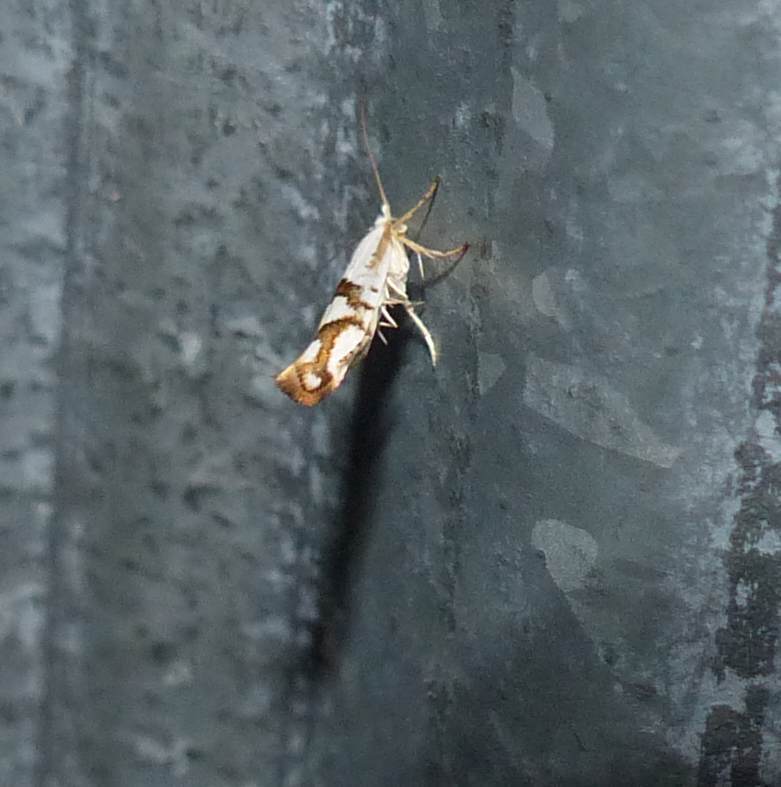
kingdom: Animalia
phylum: Arthropoda
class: Insecta
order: Lepidoptera
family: Argyresthiidae
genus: Argyresthia
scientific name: Argyresthia oreasella
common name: Cherry shoot borer moth
